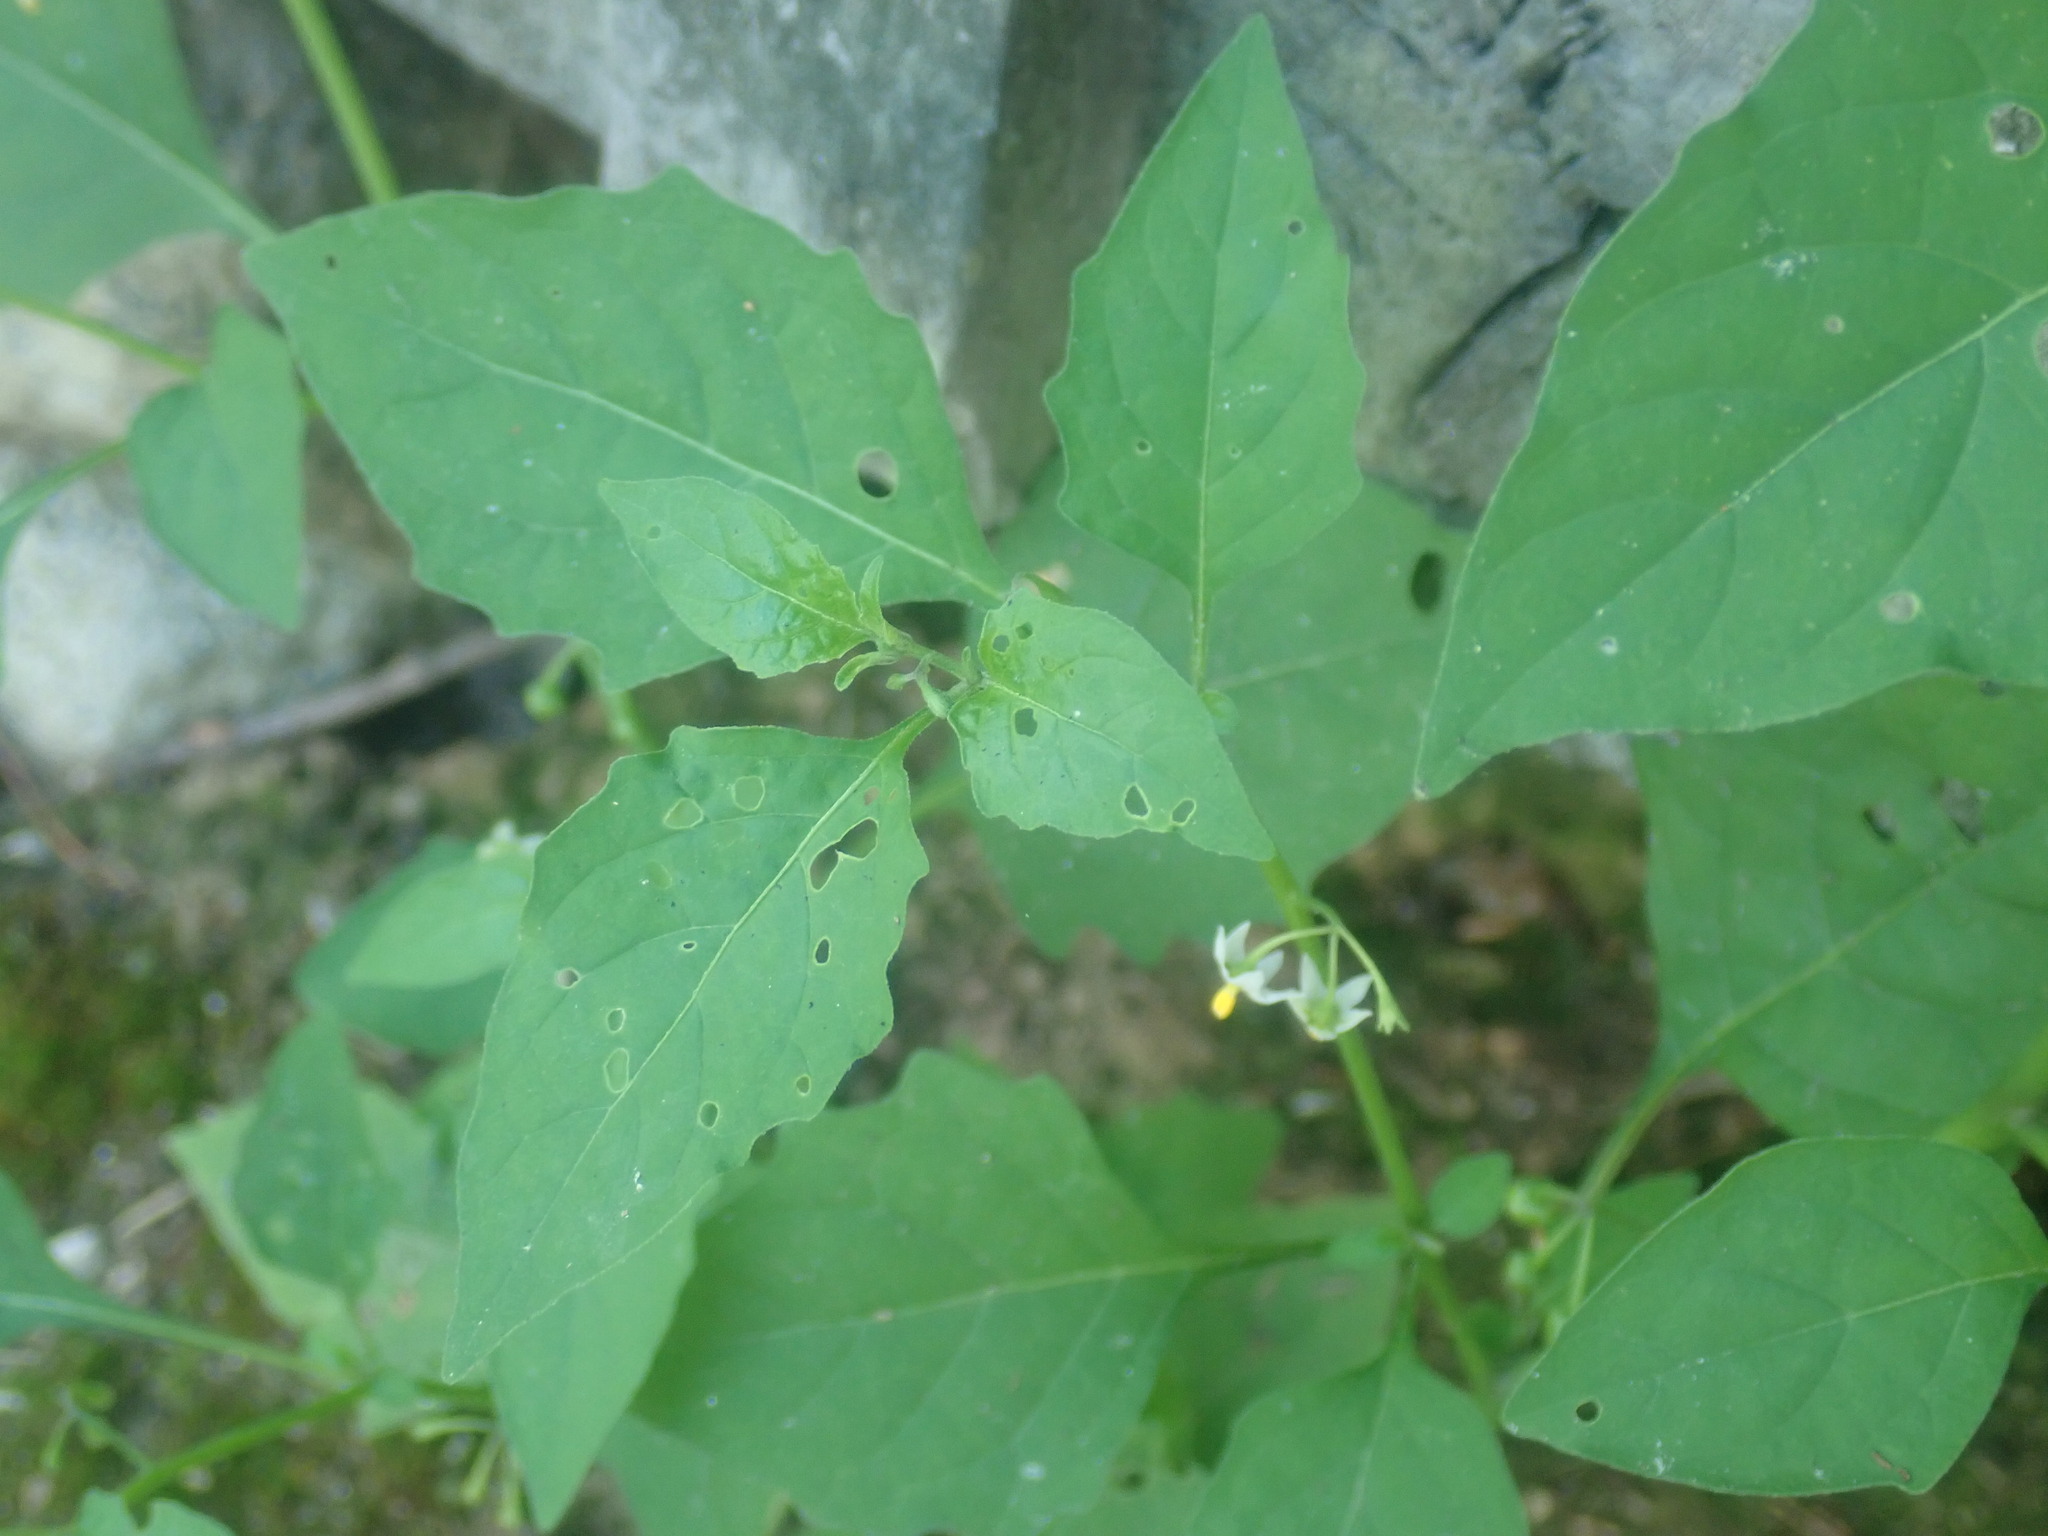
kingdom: Plantae
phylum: Tracheophyta
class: Magnoliopsida
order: Solanales
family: Solanaceae
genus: Solanum
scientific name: Solanum emulans
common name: Eastern black nightshade
